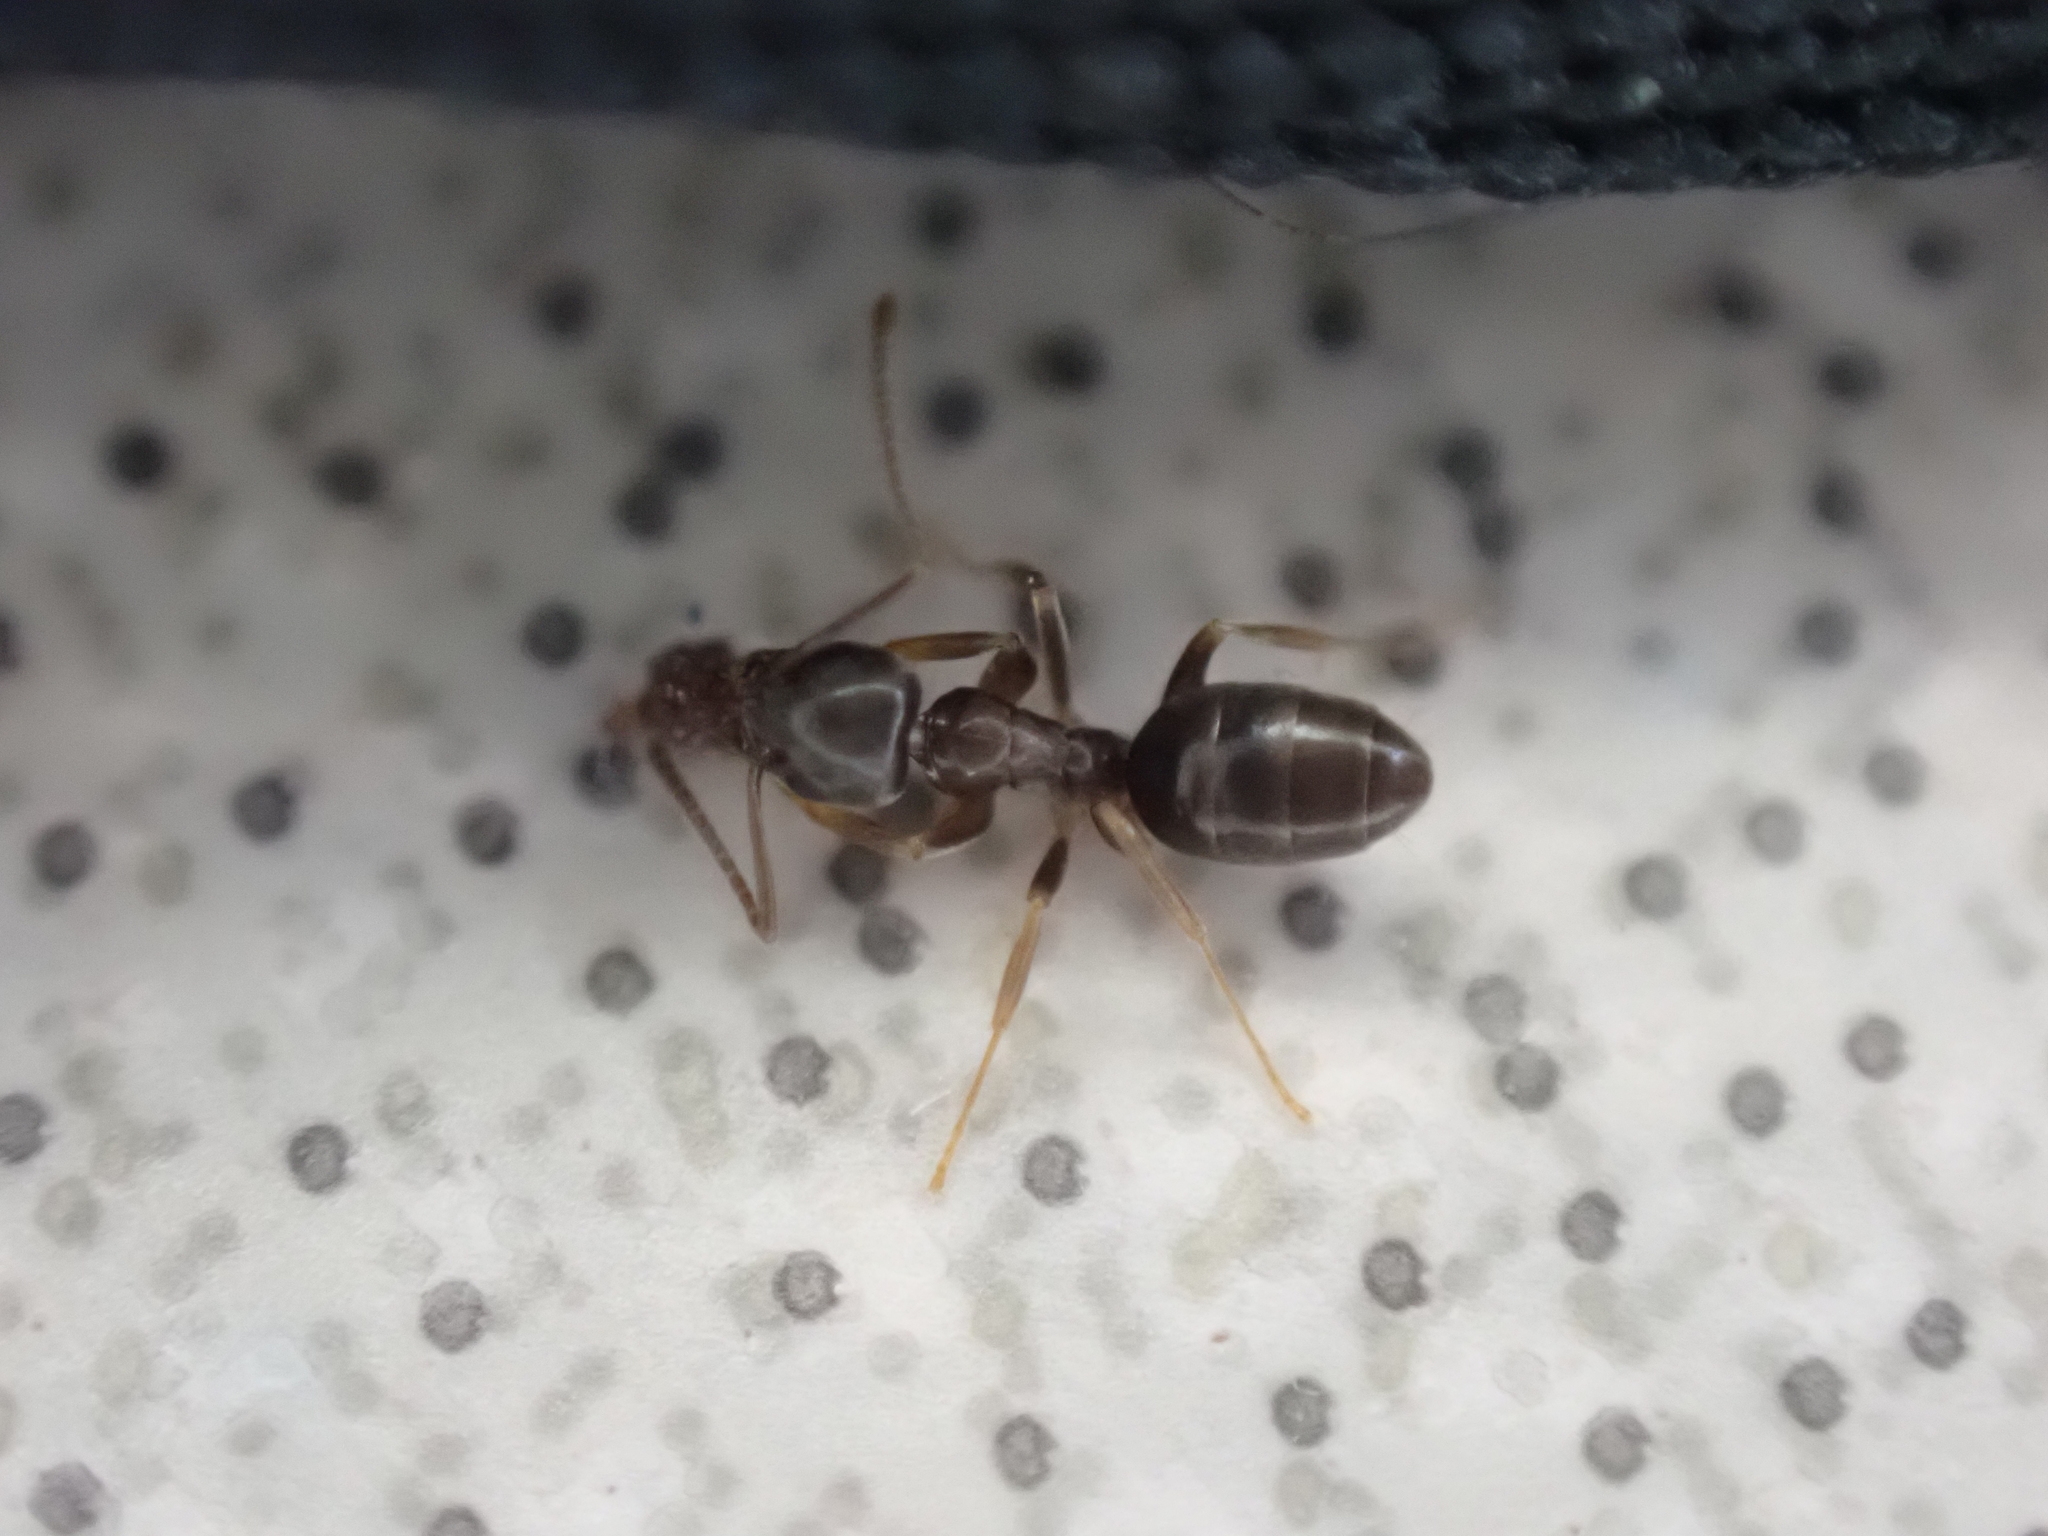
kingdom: Animalia
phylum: Arthropoda
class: Insecta
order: Hymenoptera
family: Formicidae
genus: Tapinoma
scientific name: Tapinoma sessile
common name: Odorous house ant
